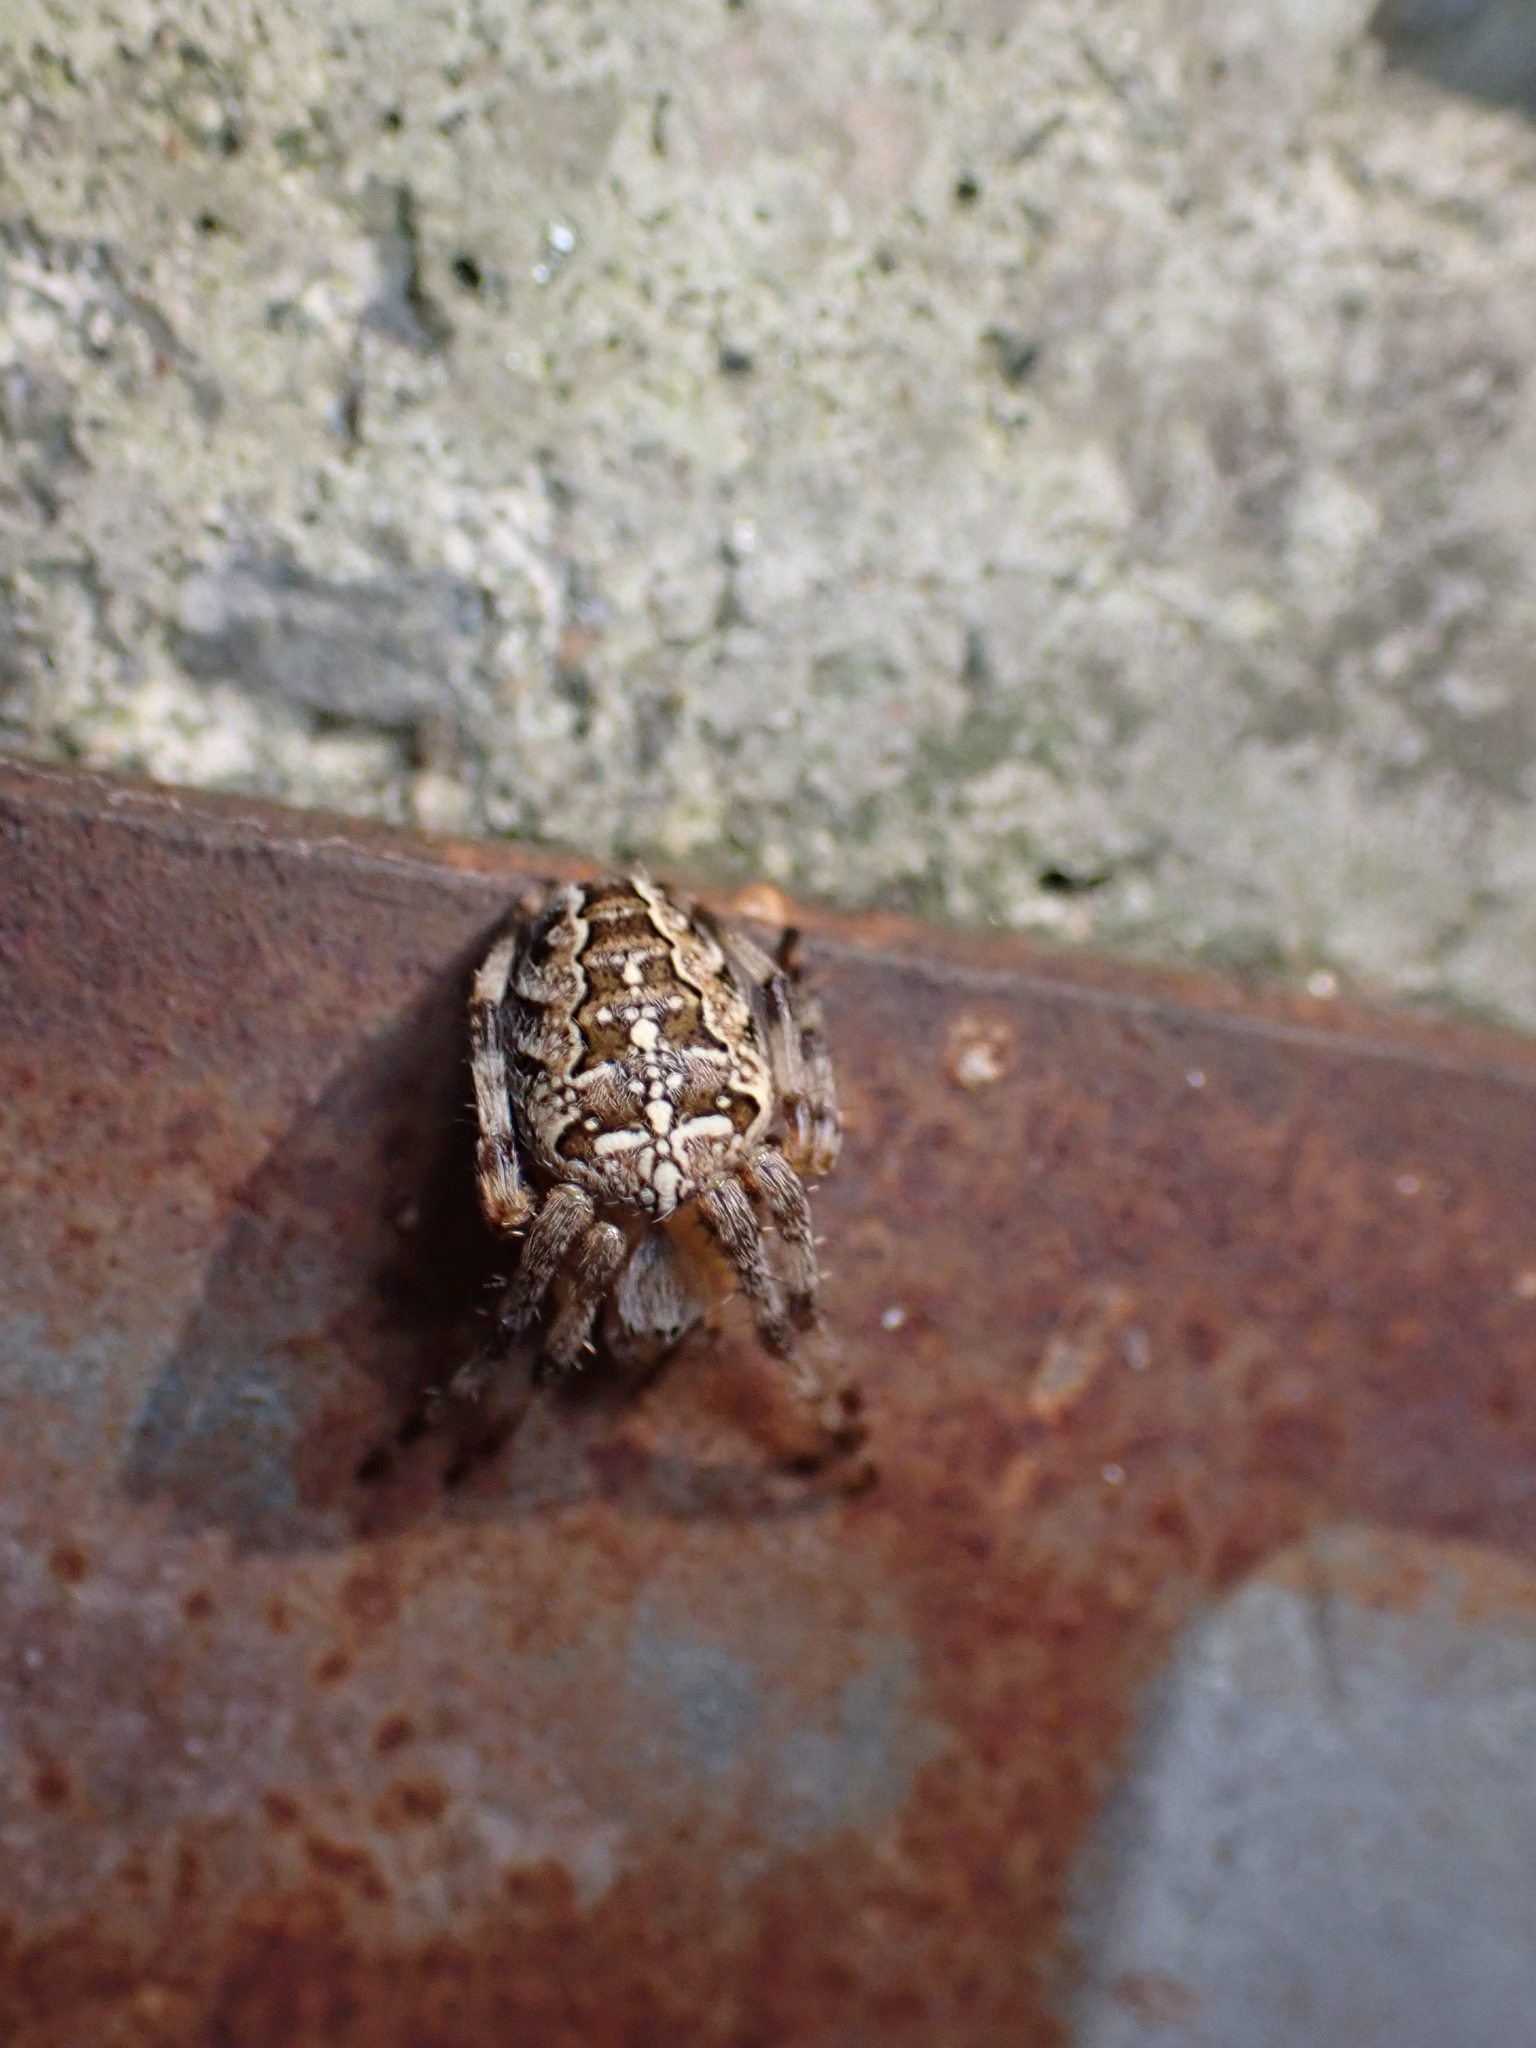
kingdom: Animalia
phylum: Arthropoda
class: Arachnida
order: Araneae
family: Araneidae
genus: Araneus
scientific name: Araneus diadematus
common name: Cross orbweaver
